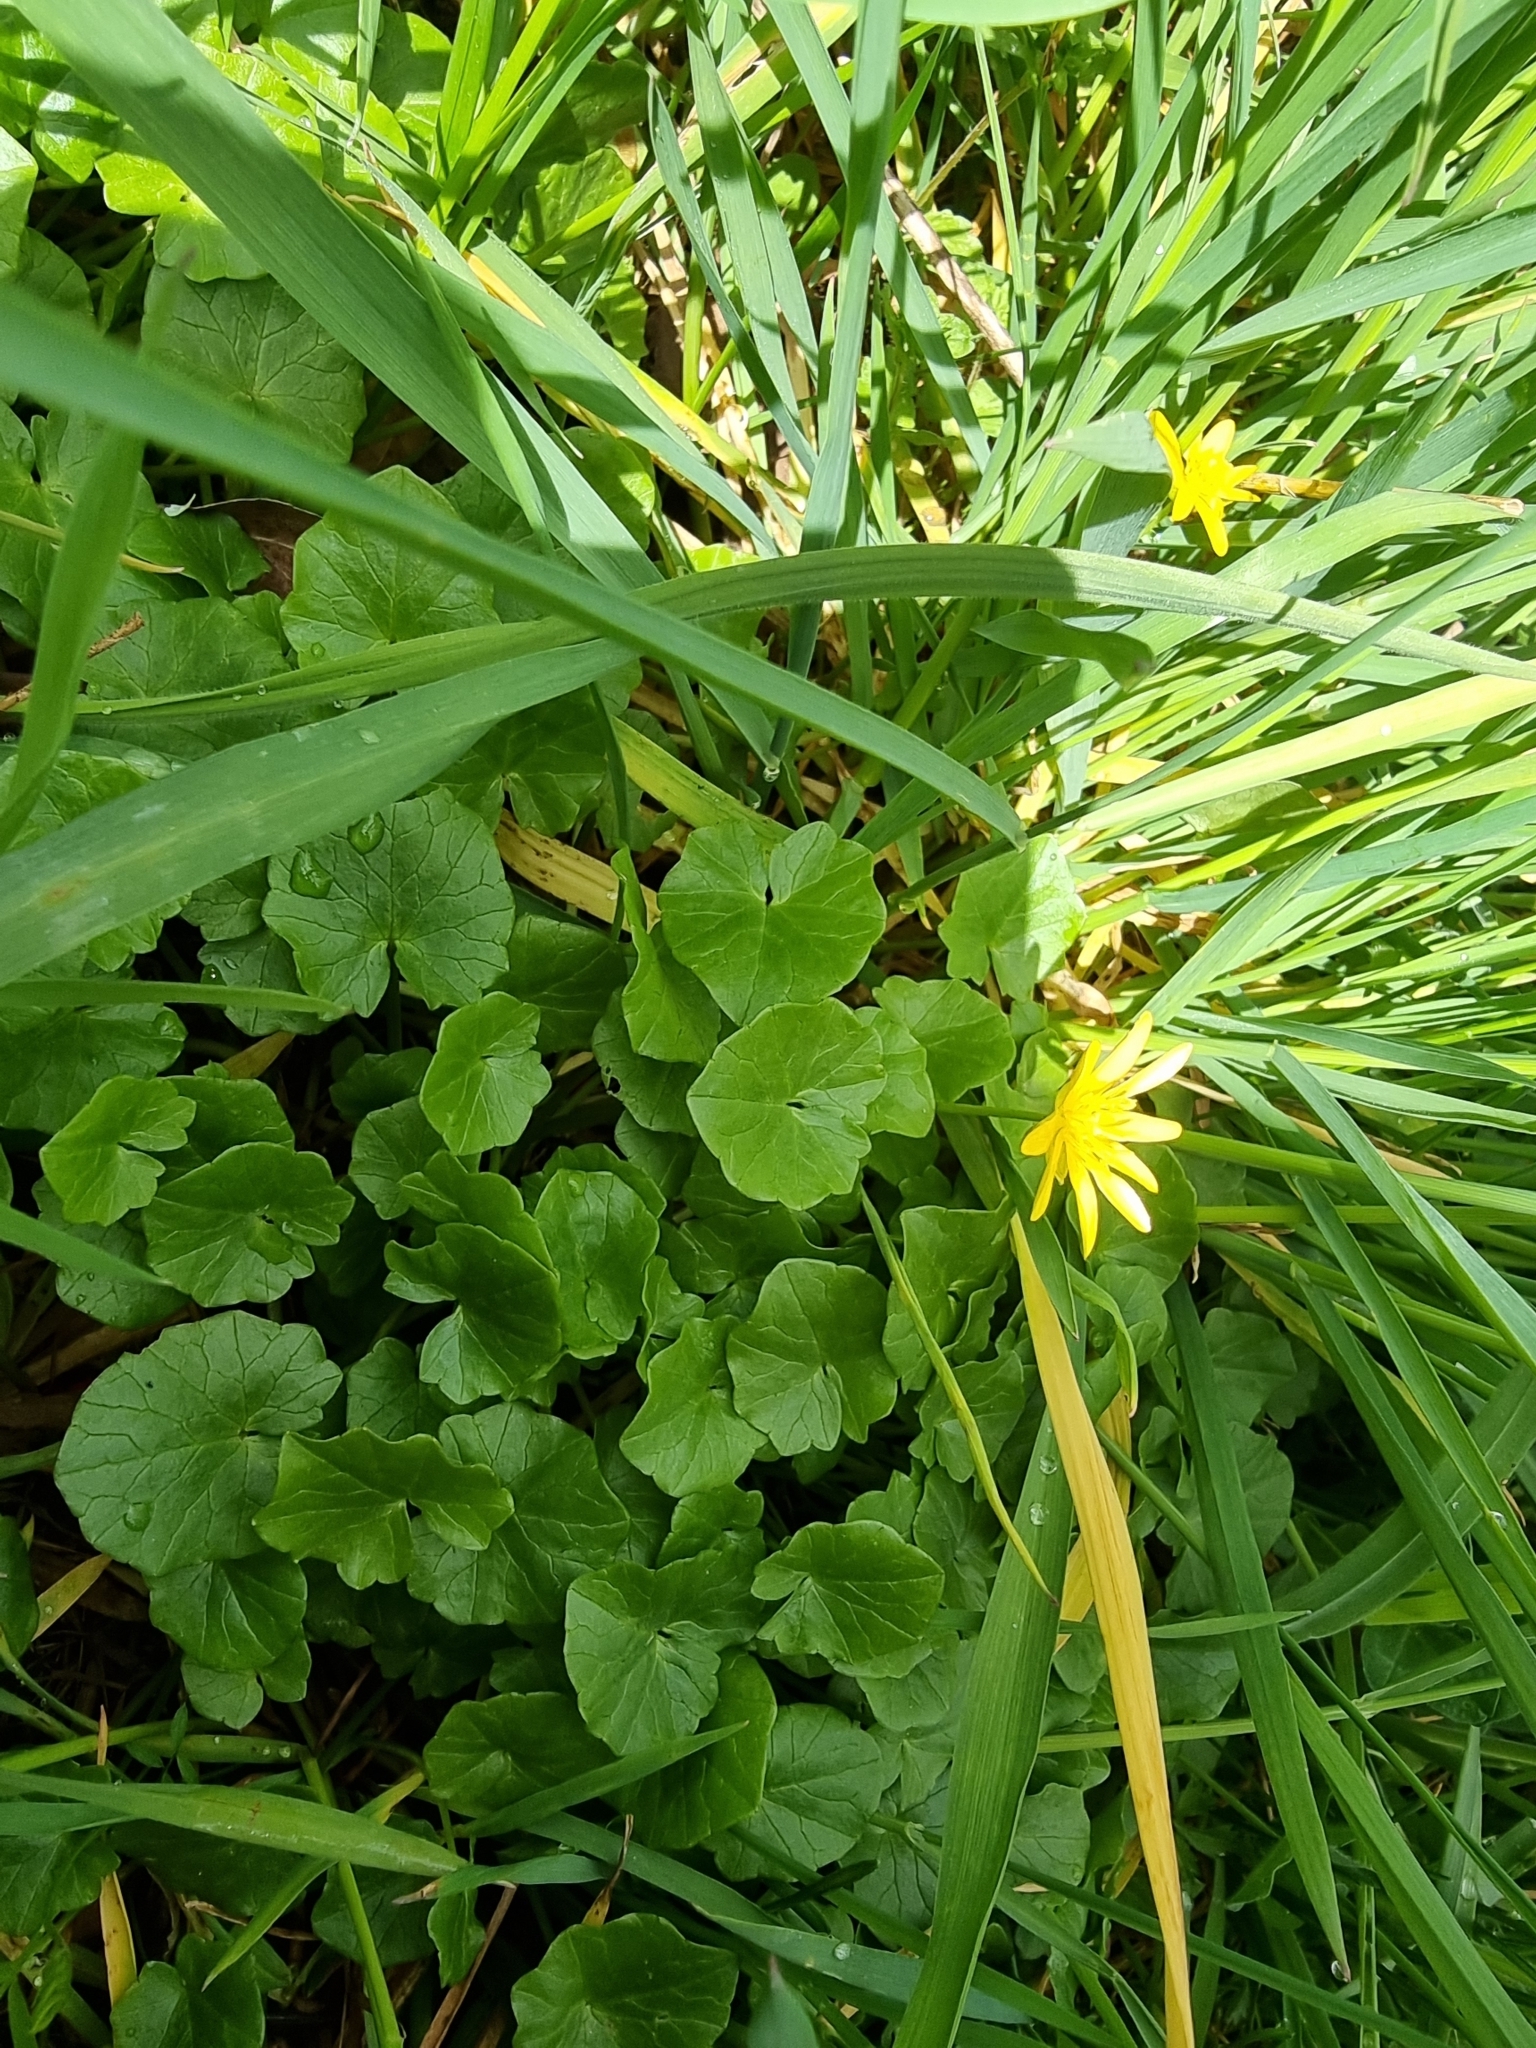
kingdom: Plantae
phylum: Tracheophyta
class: Magnoliopsida
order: Ranunculales
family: Ranunculaceae
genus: Ficaria
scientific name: Ficaria verna
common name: Lesser celandine
